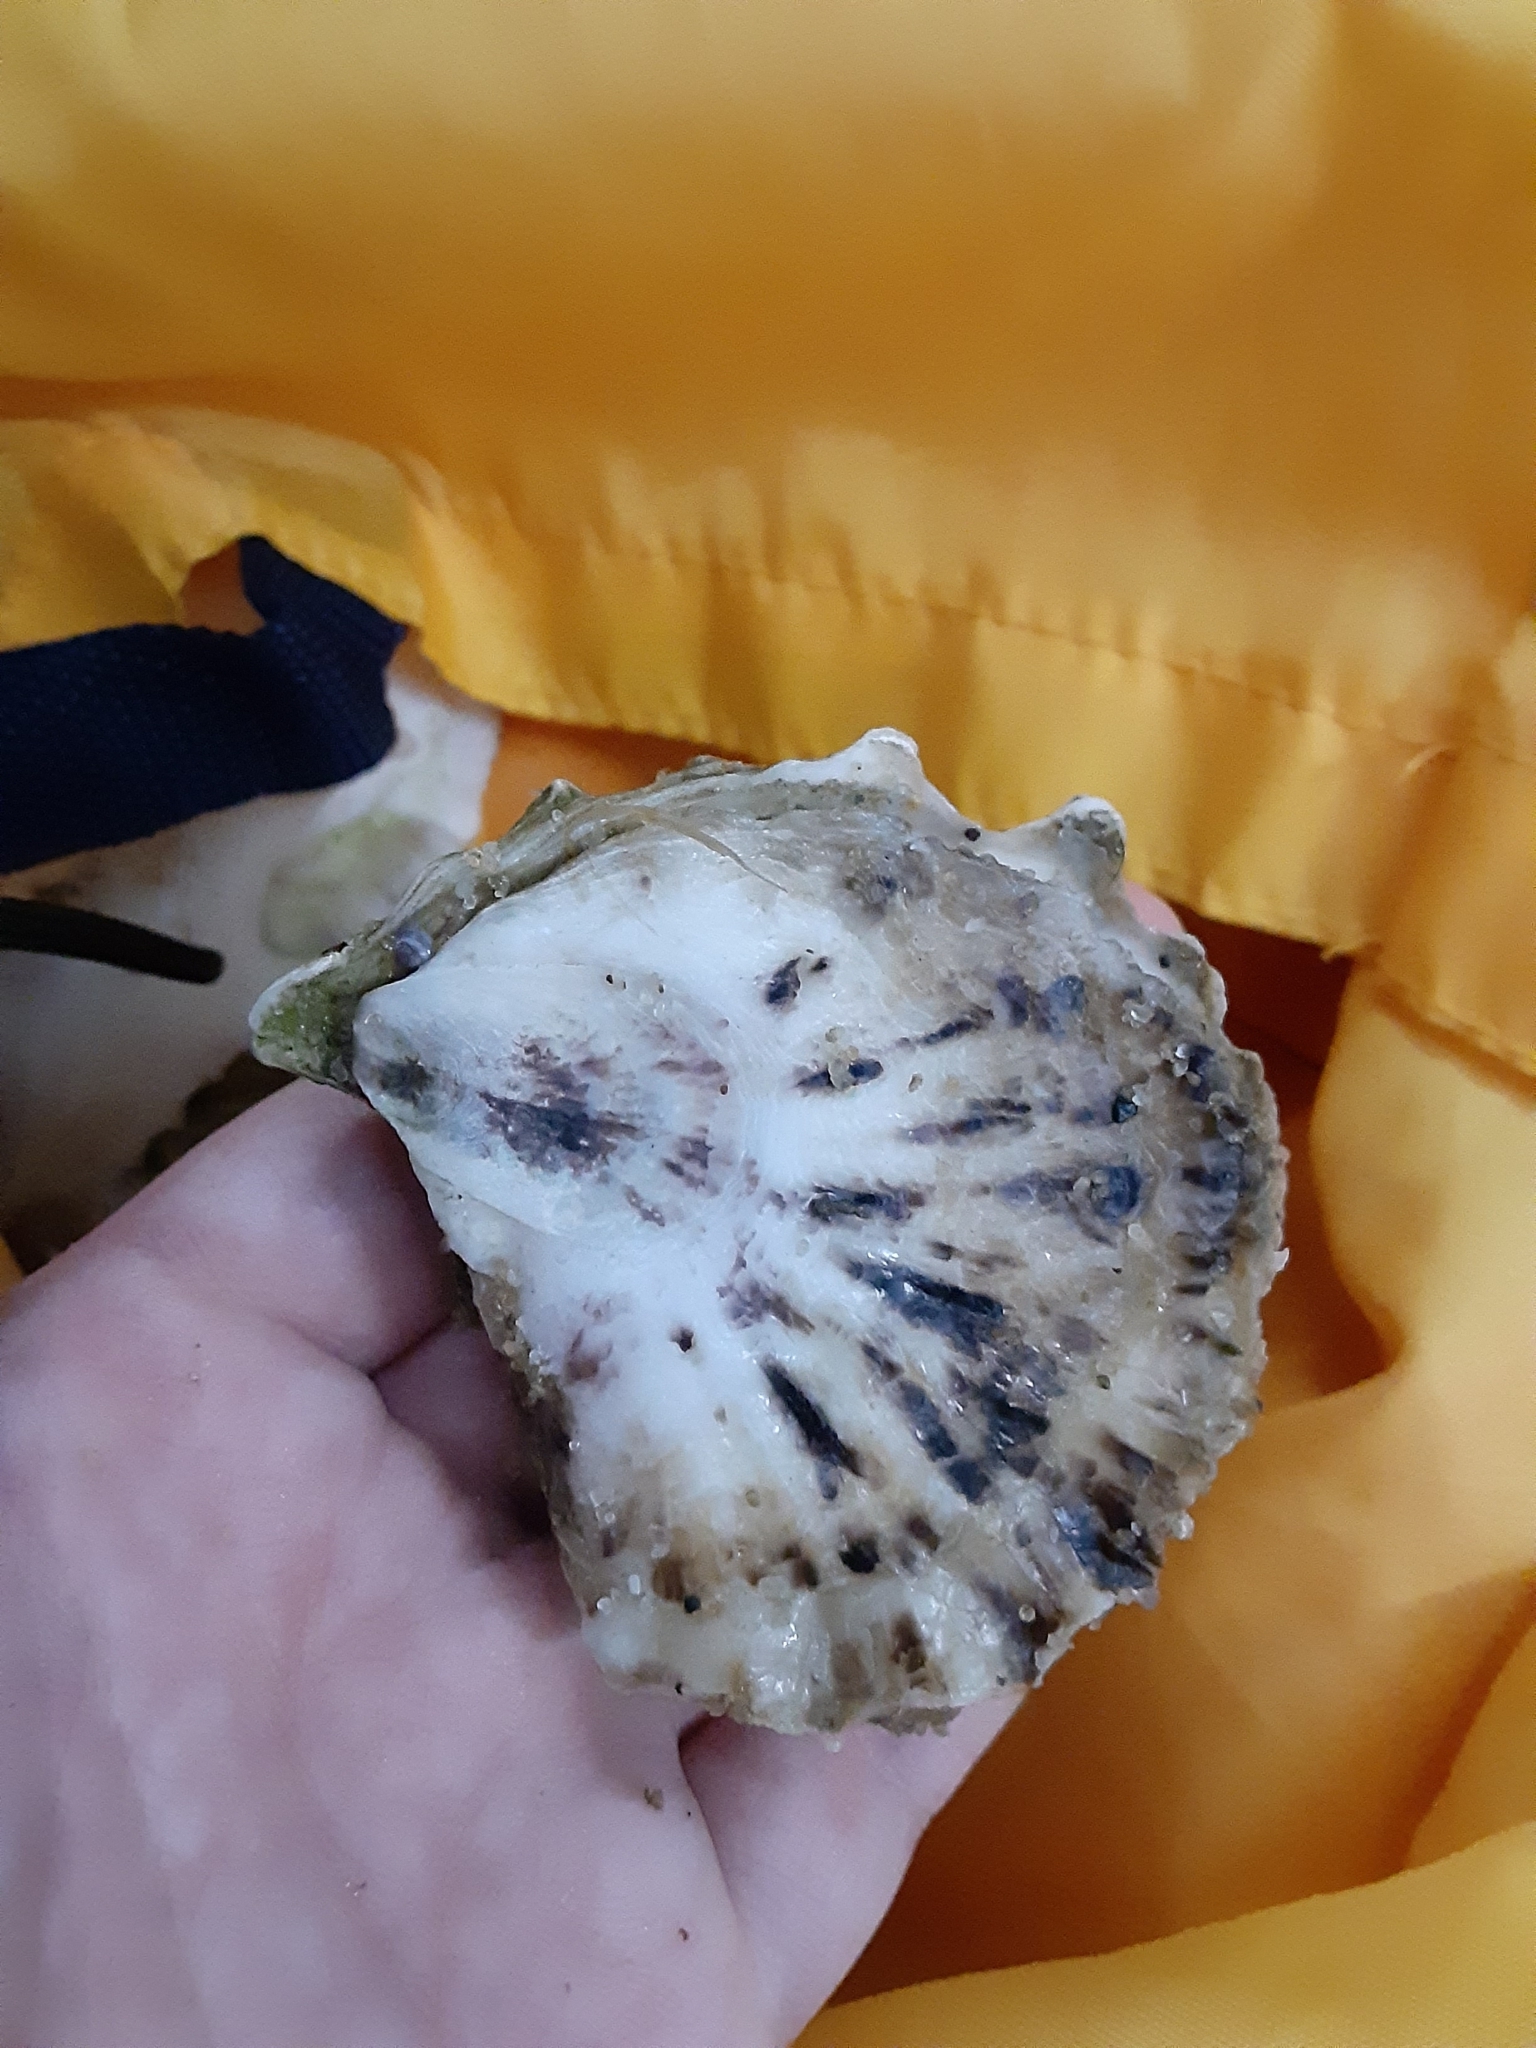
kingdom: Animalia
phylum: Mollusca
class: Bivalvia
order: Ostreida
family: Ostreidae
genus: Crassostrea
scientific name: Crassostrea virginica
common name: American oyster
